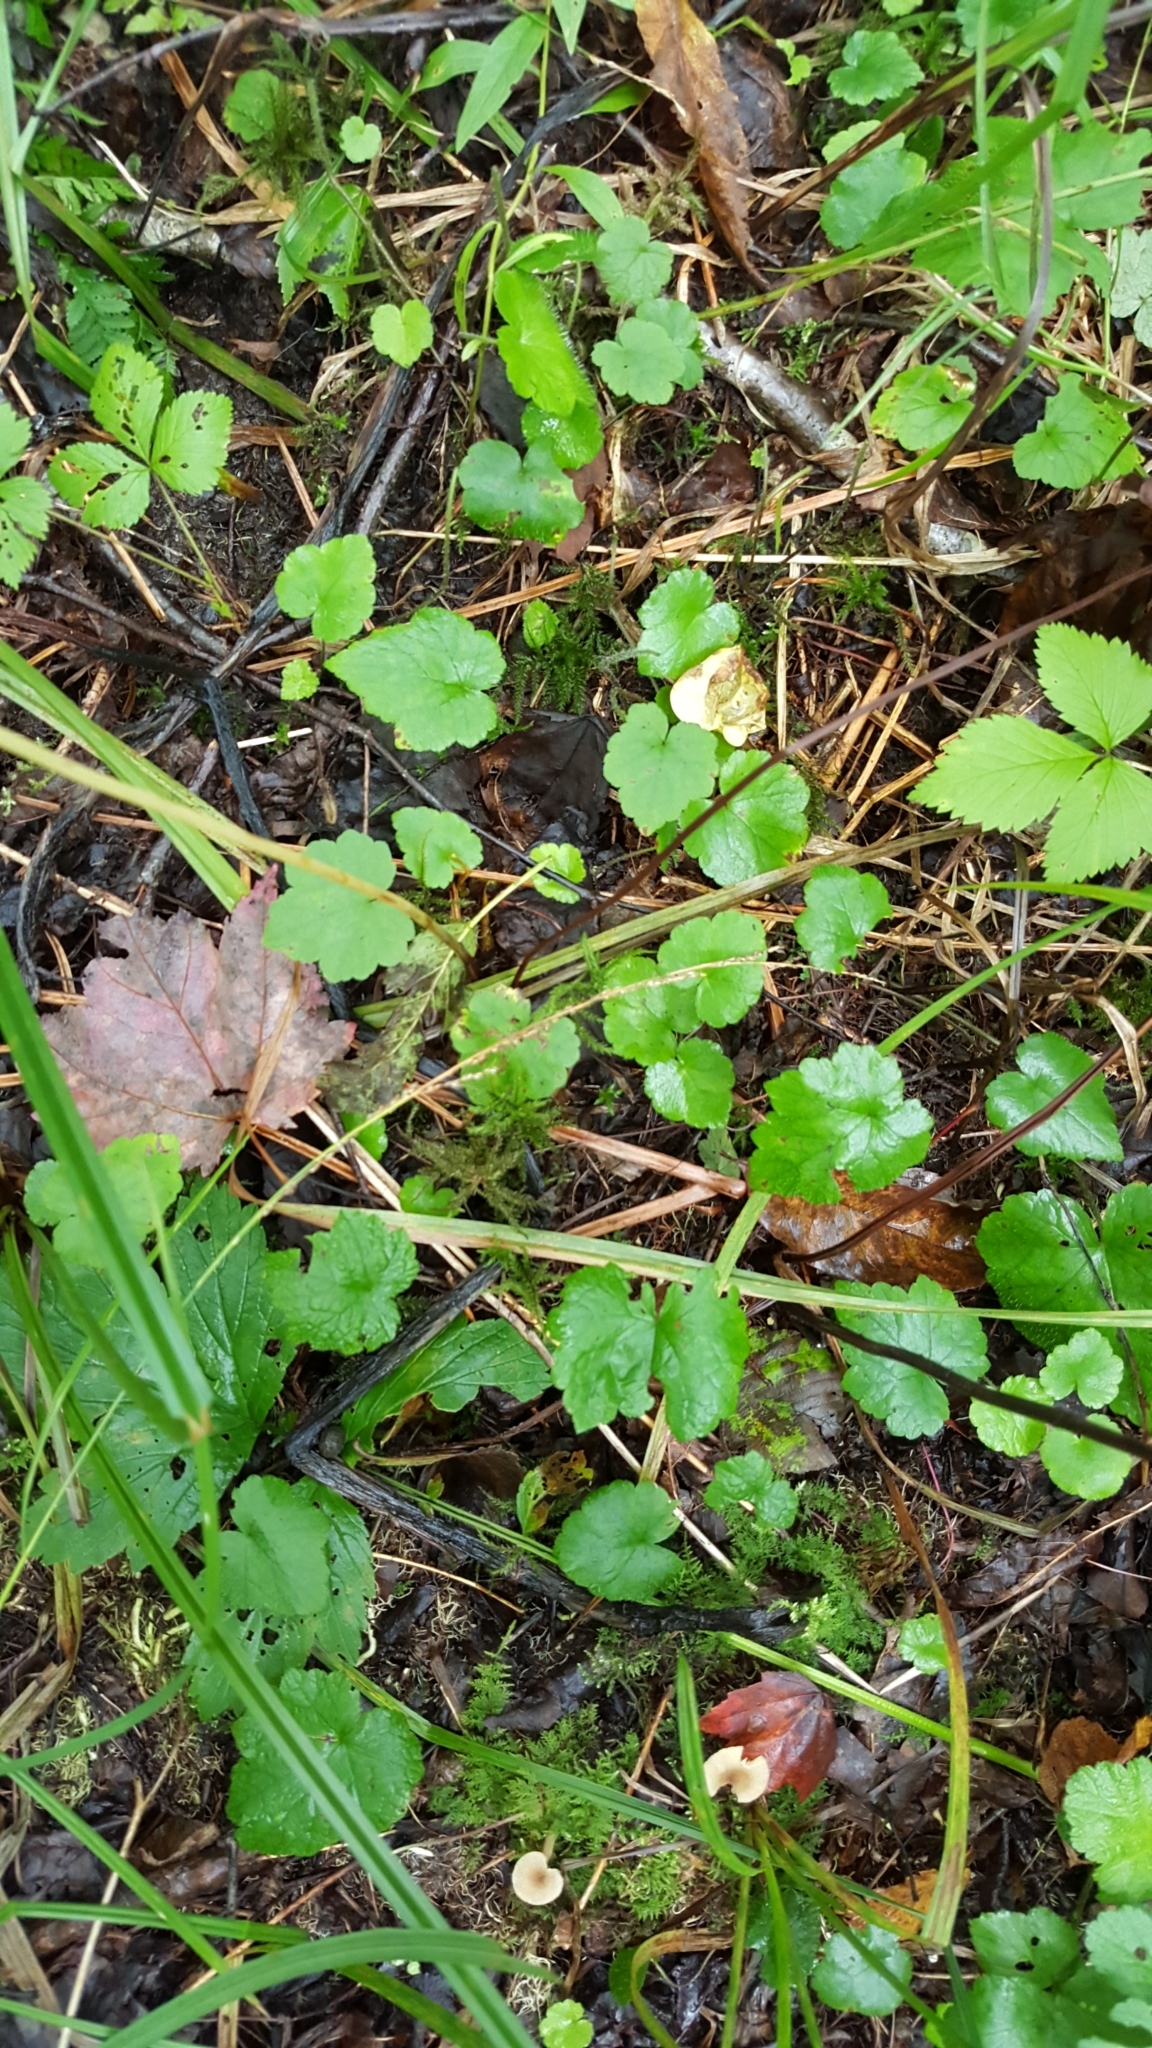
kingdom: Plantae
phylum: Tracheophyta
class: Magnoliopsida
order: Saxifragales
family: Saxifragaceae
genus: Tiarella
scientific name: Tiarella stolonifera
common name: Stoloniferous foamflower
